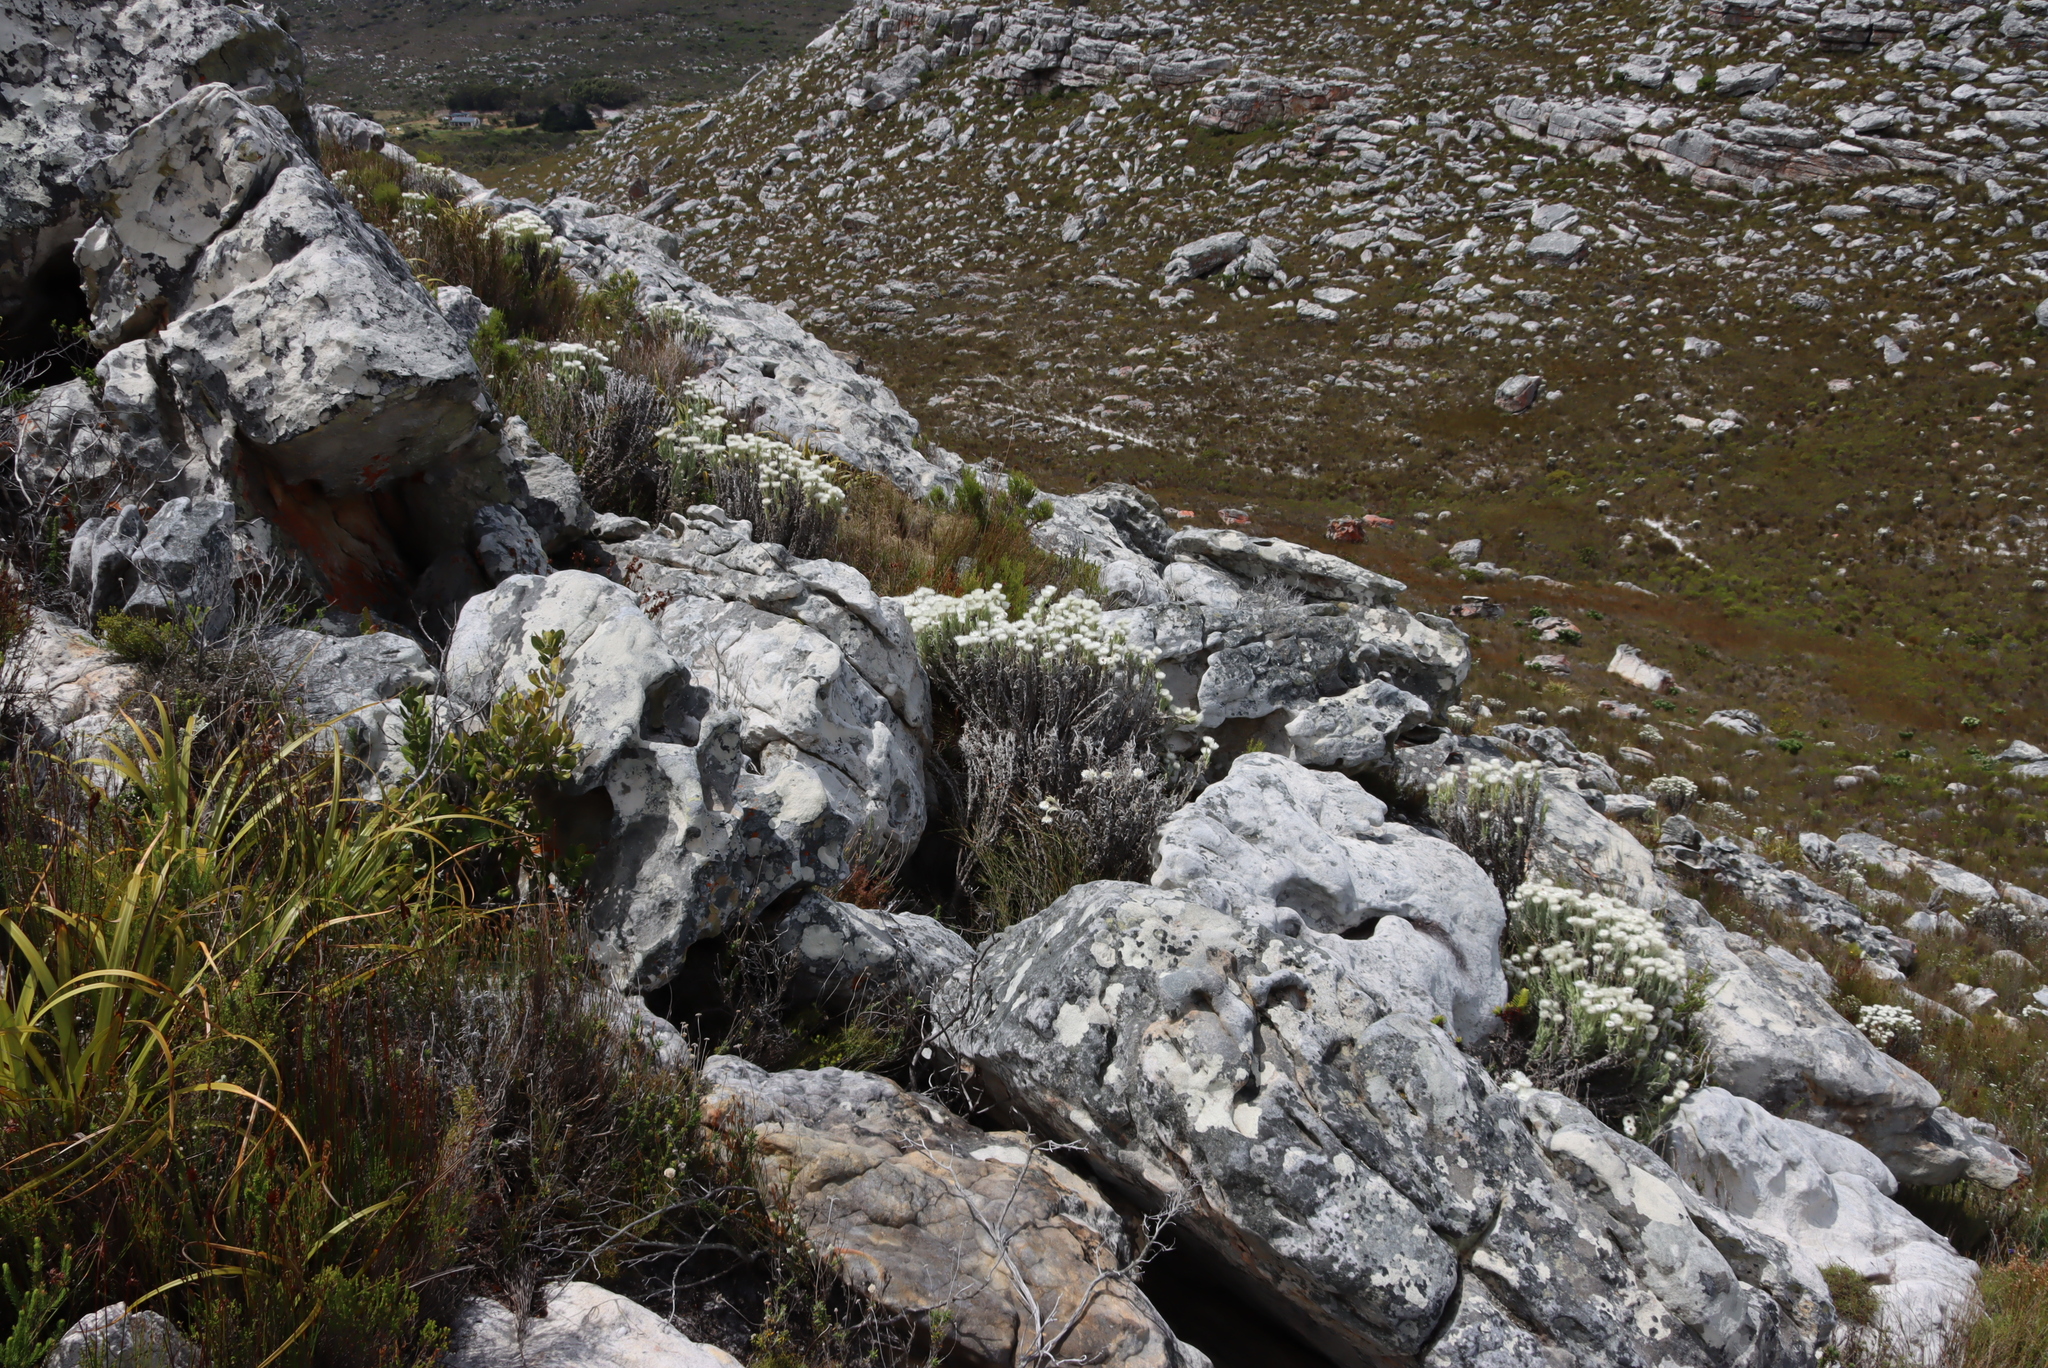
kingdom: Plantae
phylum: Tracheophyta
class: Magnoliopsida
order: Asterales
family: Asteraceae
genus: Syncarpha
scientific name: Syncarpha vestita
